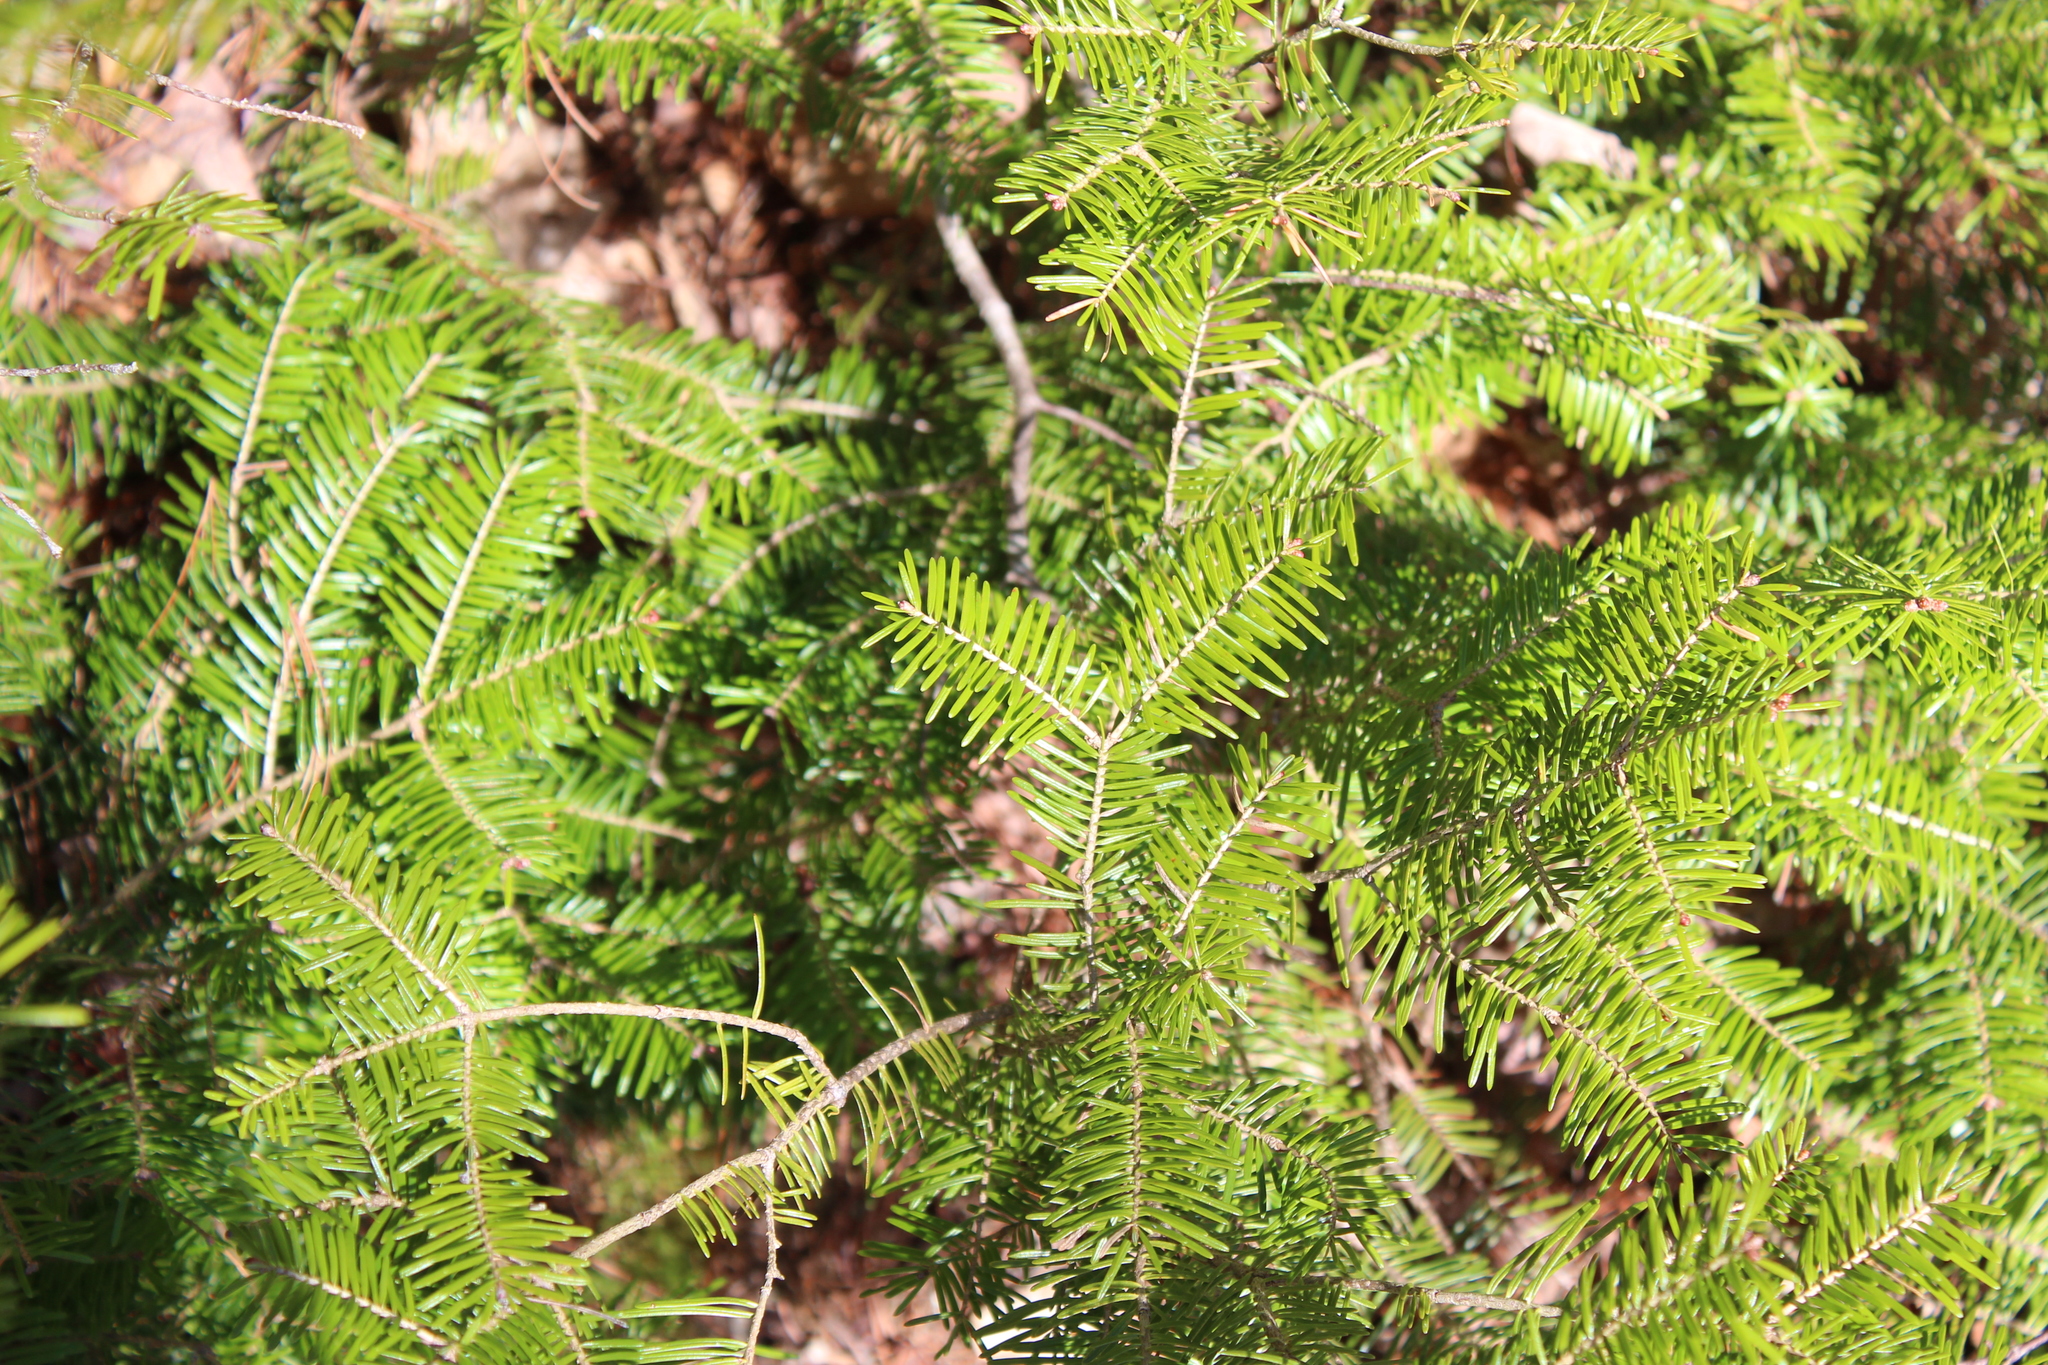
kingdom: Plantae
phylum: Tracheophyta
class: Pinopsida
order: Pinales
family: Pinaceae
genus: Abies
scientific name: Abies balsamea
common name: Balsam fir
